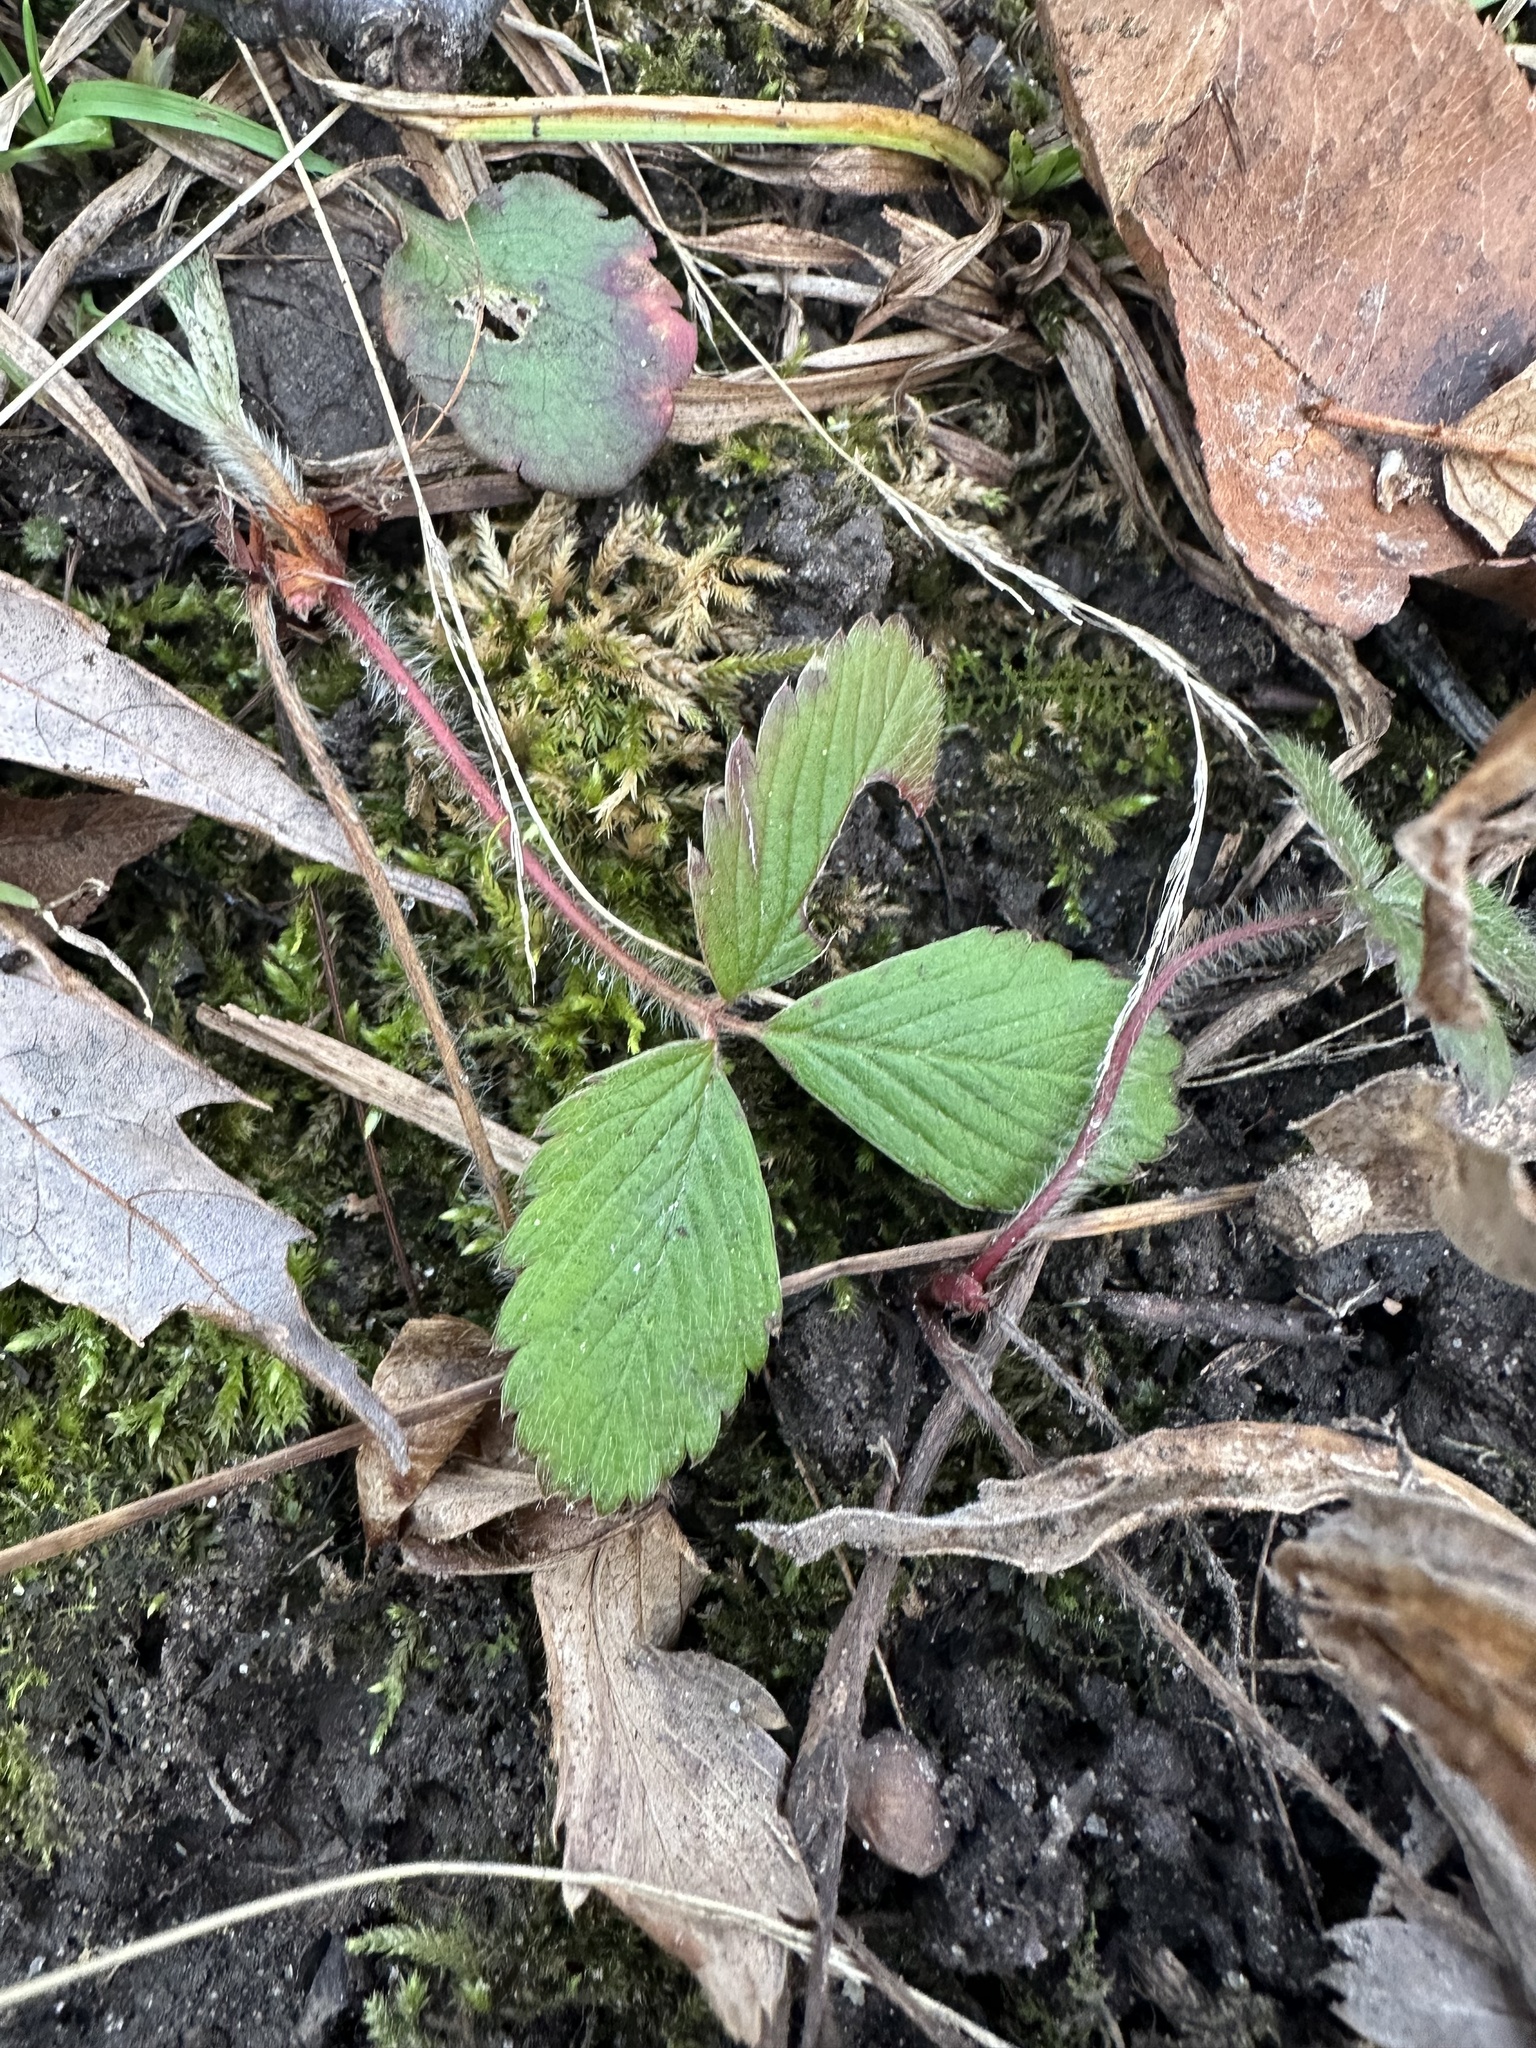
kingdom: Plantae
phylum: Tracheophyta
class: Magnoliopsida
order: Rosales
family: Rosaceae
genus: Fragaria
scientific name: Fragaria virginiana
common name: Thickleaved wild strawberry
